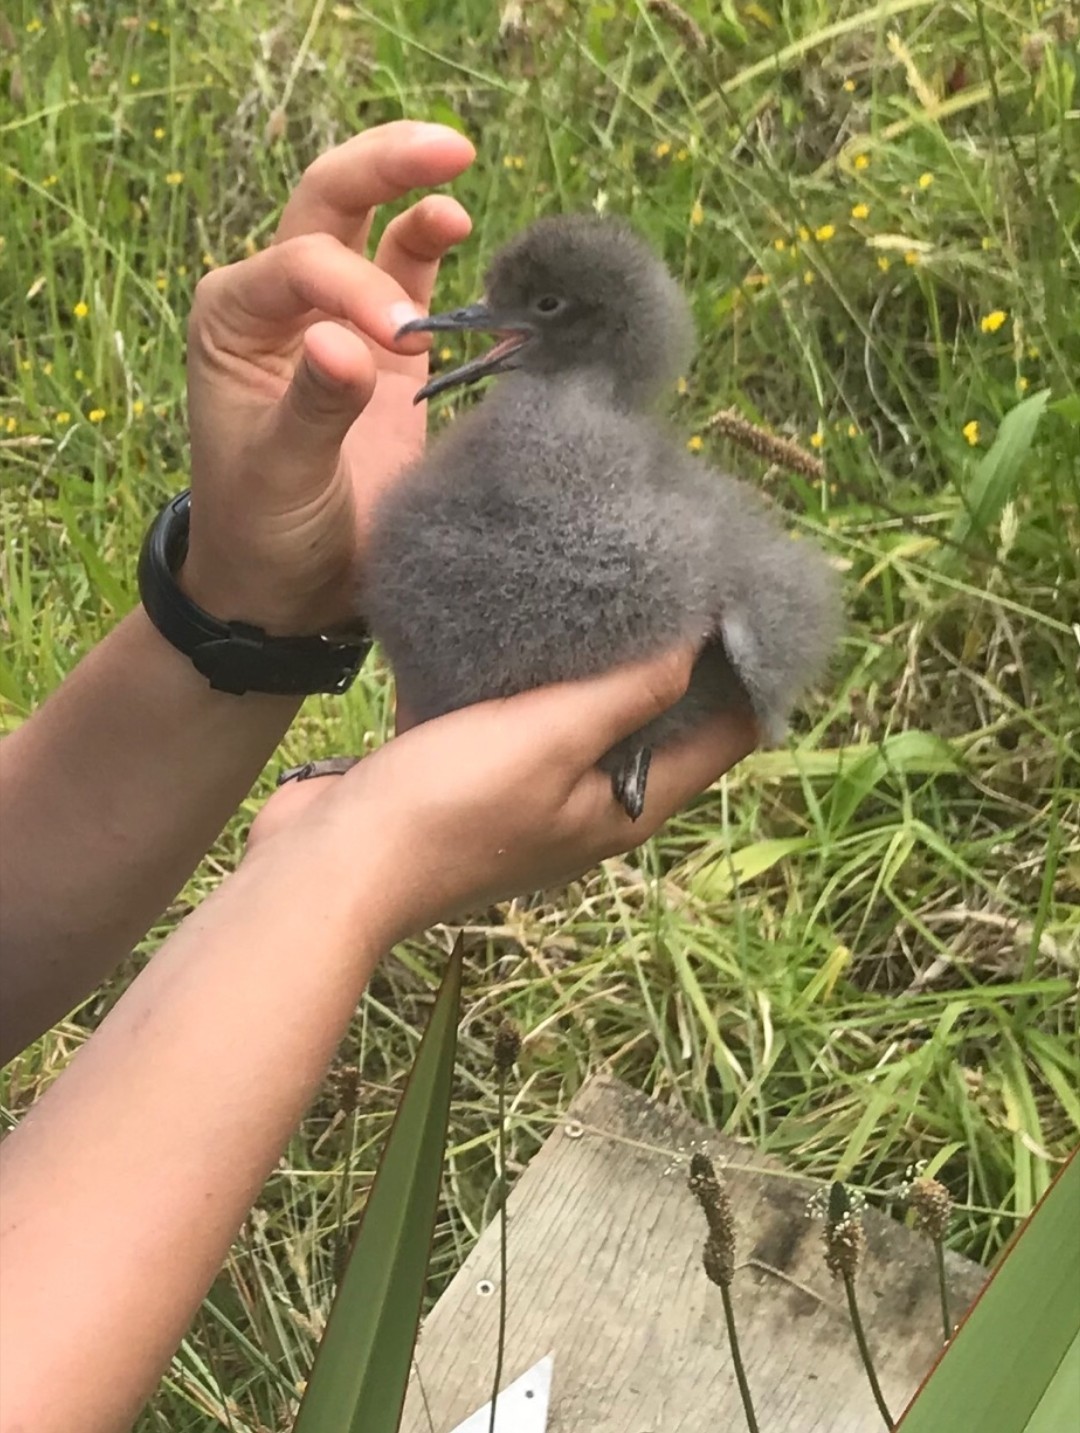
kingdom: Animalia
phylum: Chordata
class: Aves
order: Procellariiformes
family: Procellariidae
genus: Puffinus
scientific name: Puffinus gavia
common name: Fluttering shearwater
